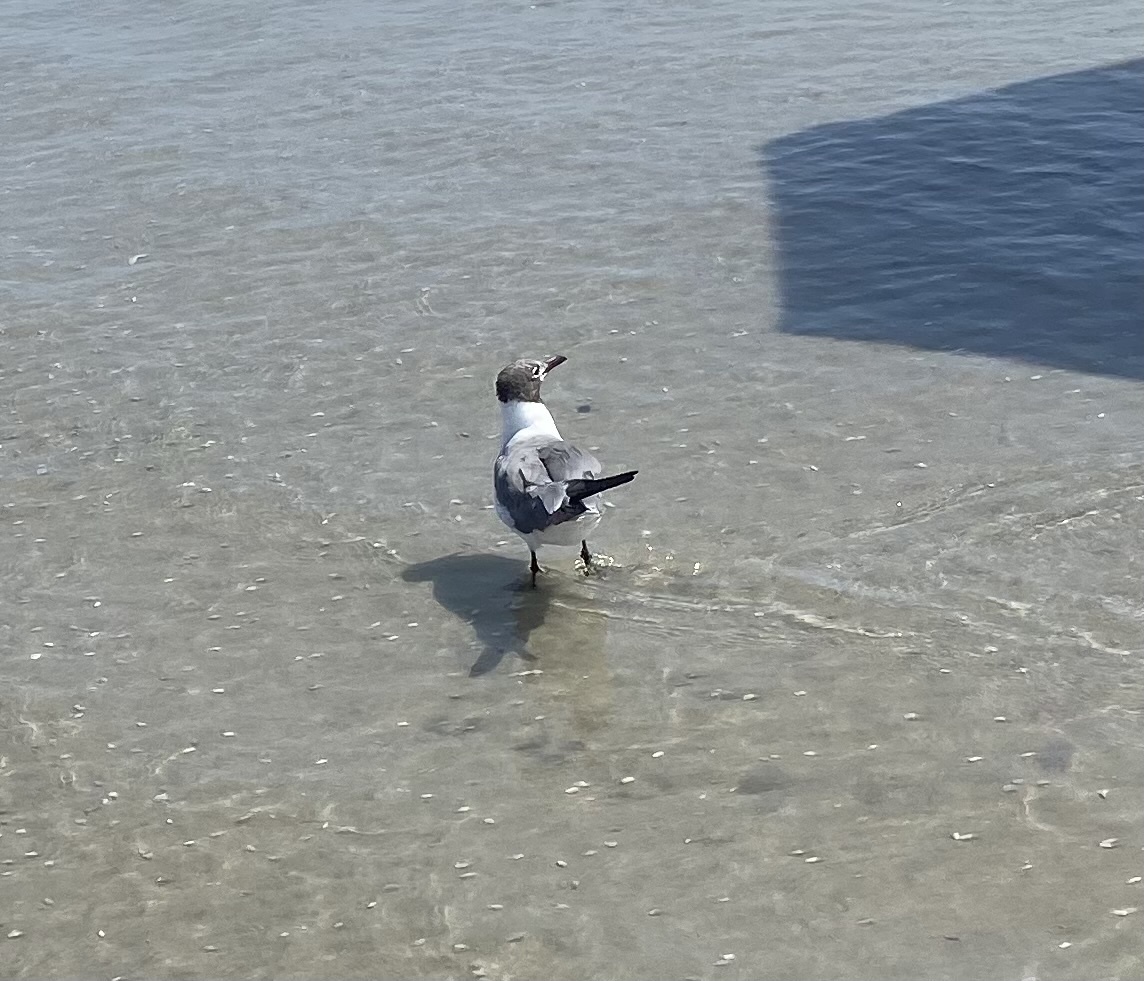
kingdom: Animalia
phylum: Chordata
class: Aves
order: Charadriiformes
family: Laridae
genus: Leucophaeus
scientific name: Leucophaeus atricilla
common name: Laughing gull
